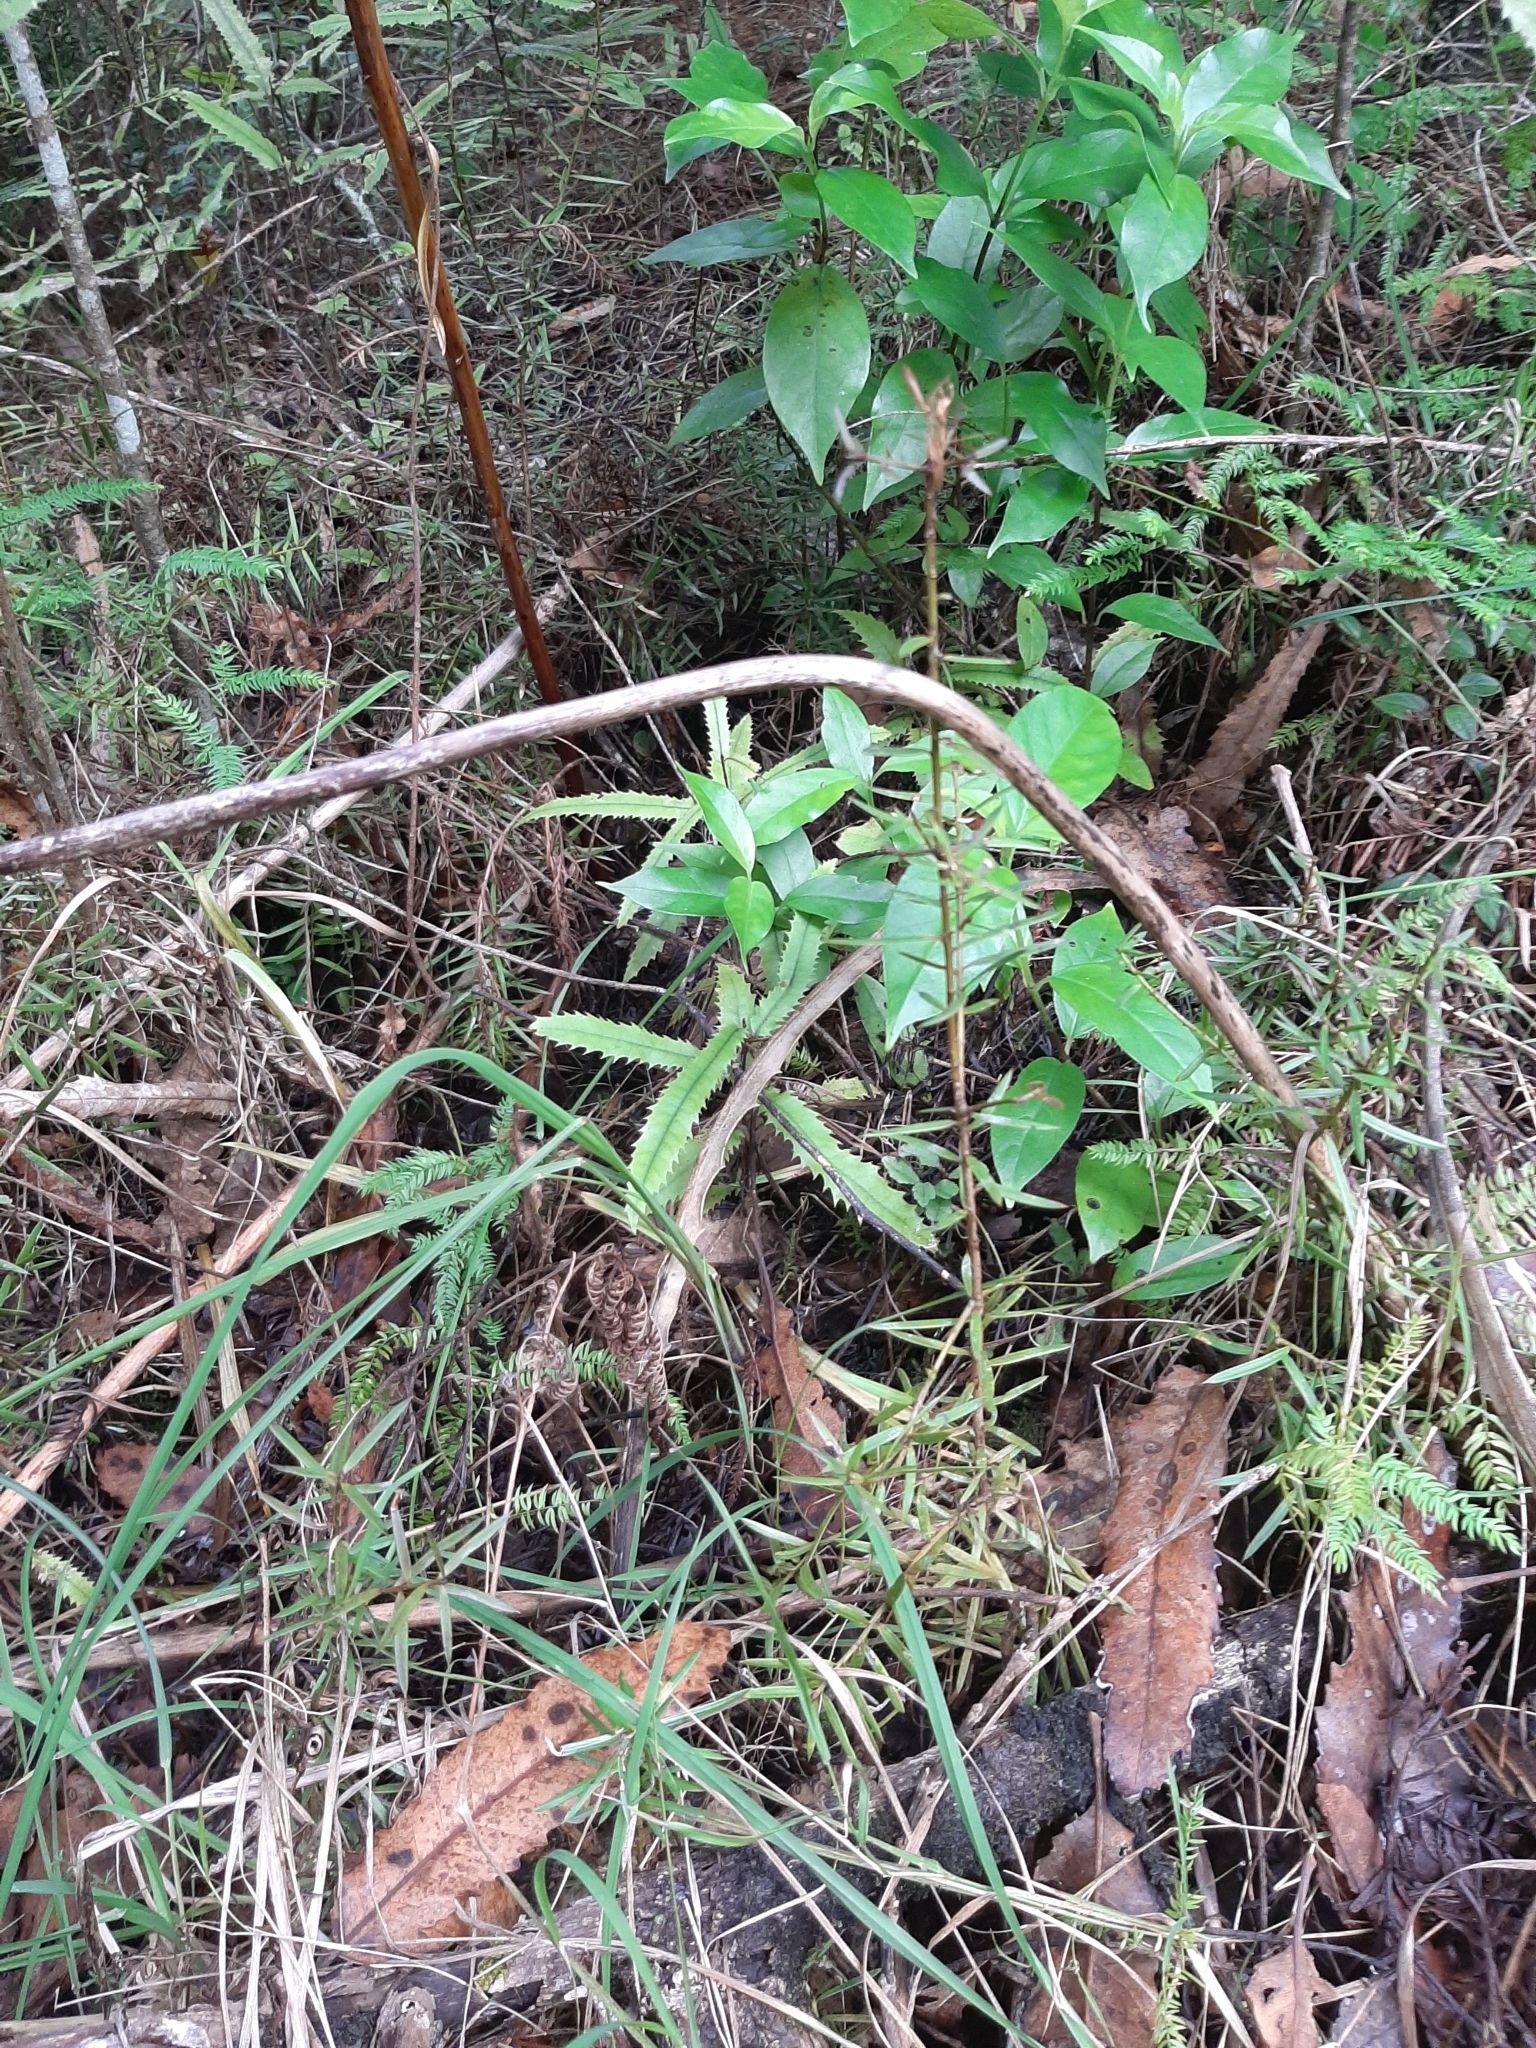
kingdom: Plantae
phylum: Tracheophyta
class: Pinopsida
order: Pinales
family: Podocarpaceae
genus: Podocarpus
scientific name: Podocarpus totara
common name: Totara
